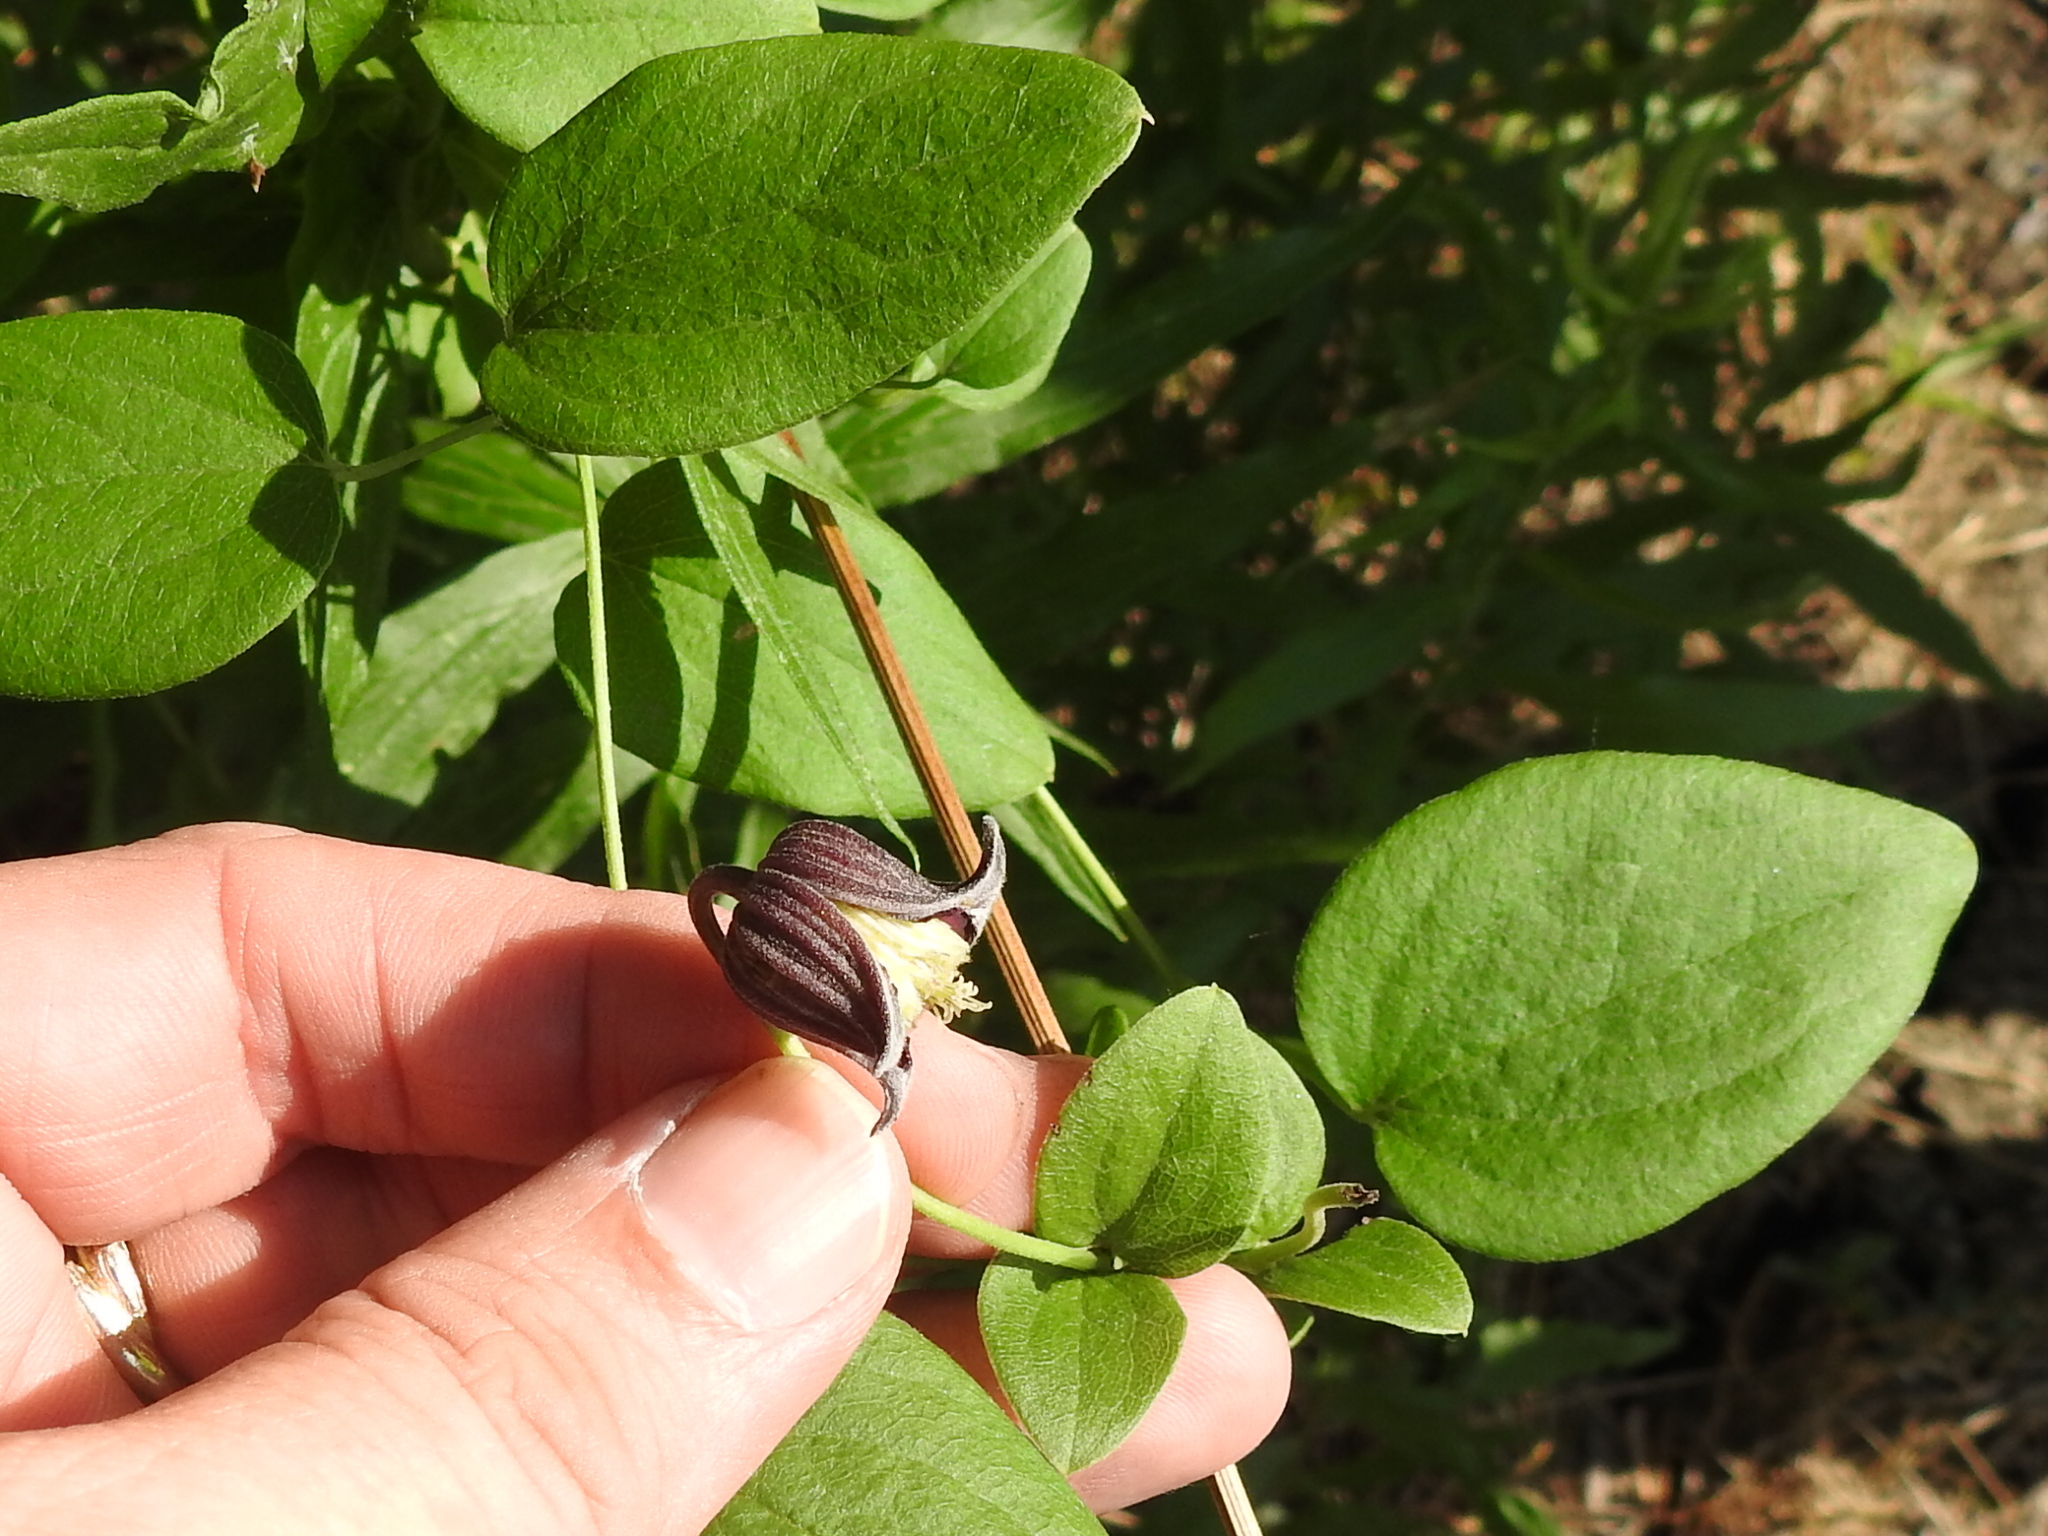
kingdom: Plantae
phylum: Tracheophyta
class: Magnoliopsida
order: Ranunculales
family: Ranunculaceae
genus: Clematis
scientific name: Clematis pitcheri
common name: Bellflower clematis
